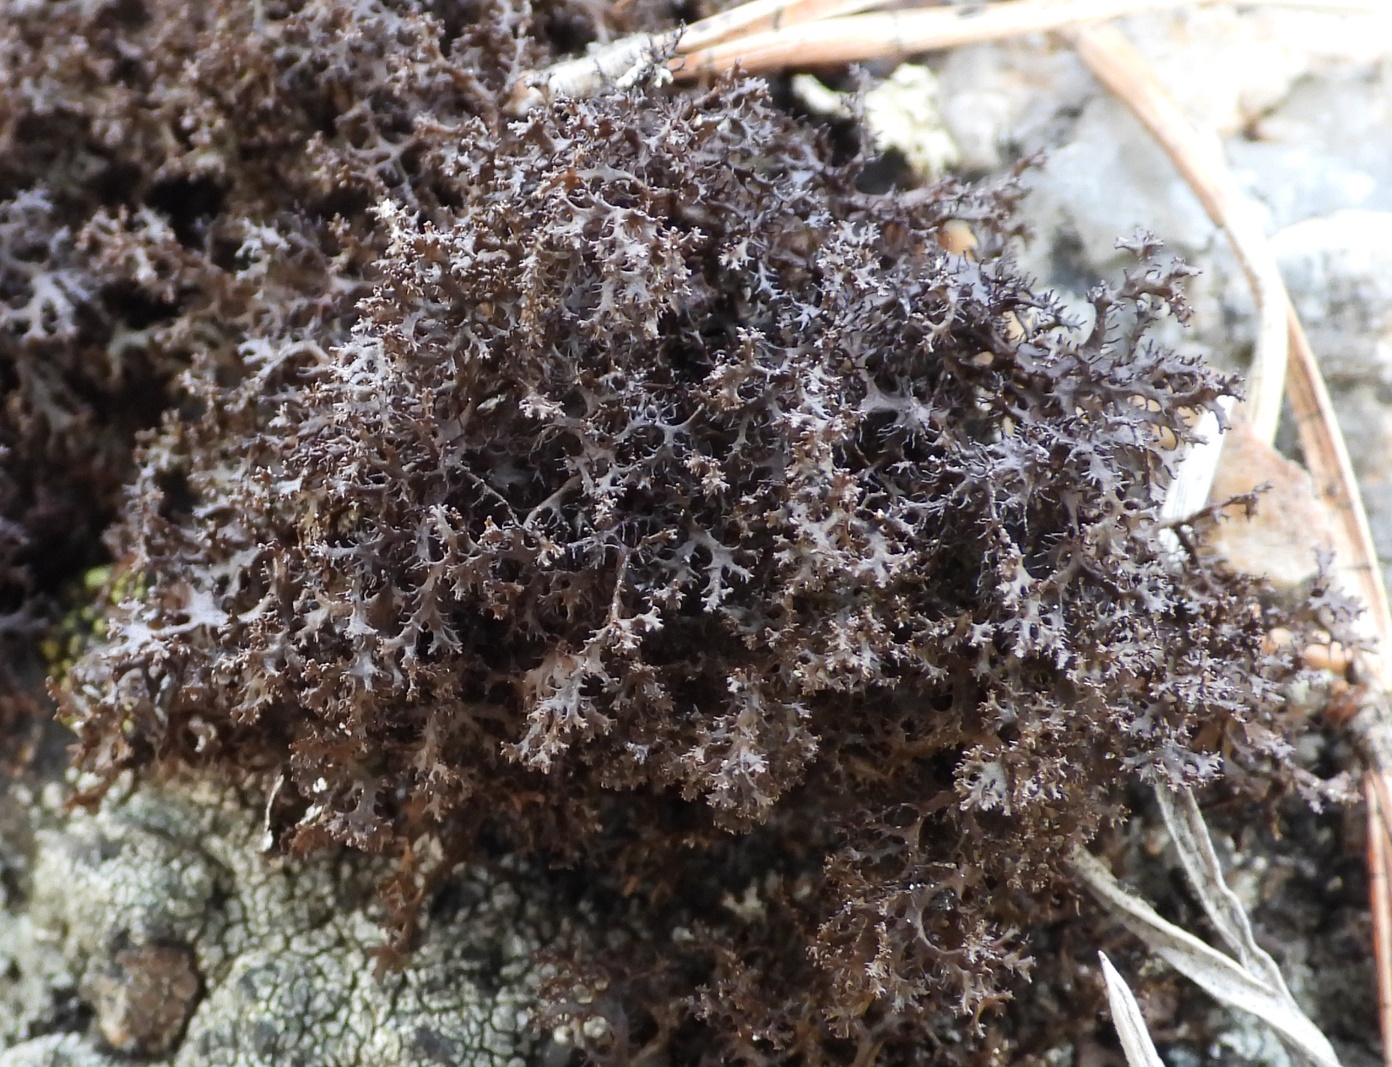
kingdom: Fungi
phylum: Ascomycota
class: Lecanoromycetes
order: Lecanorales
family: Parmeliaceae
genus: Cetraria
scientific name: Cetraria odontella
